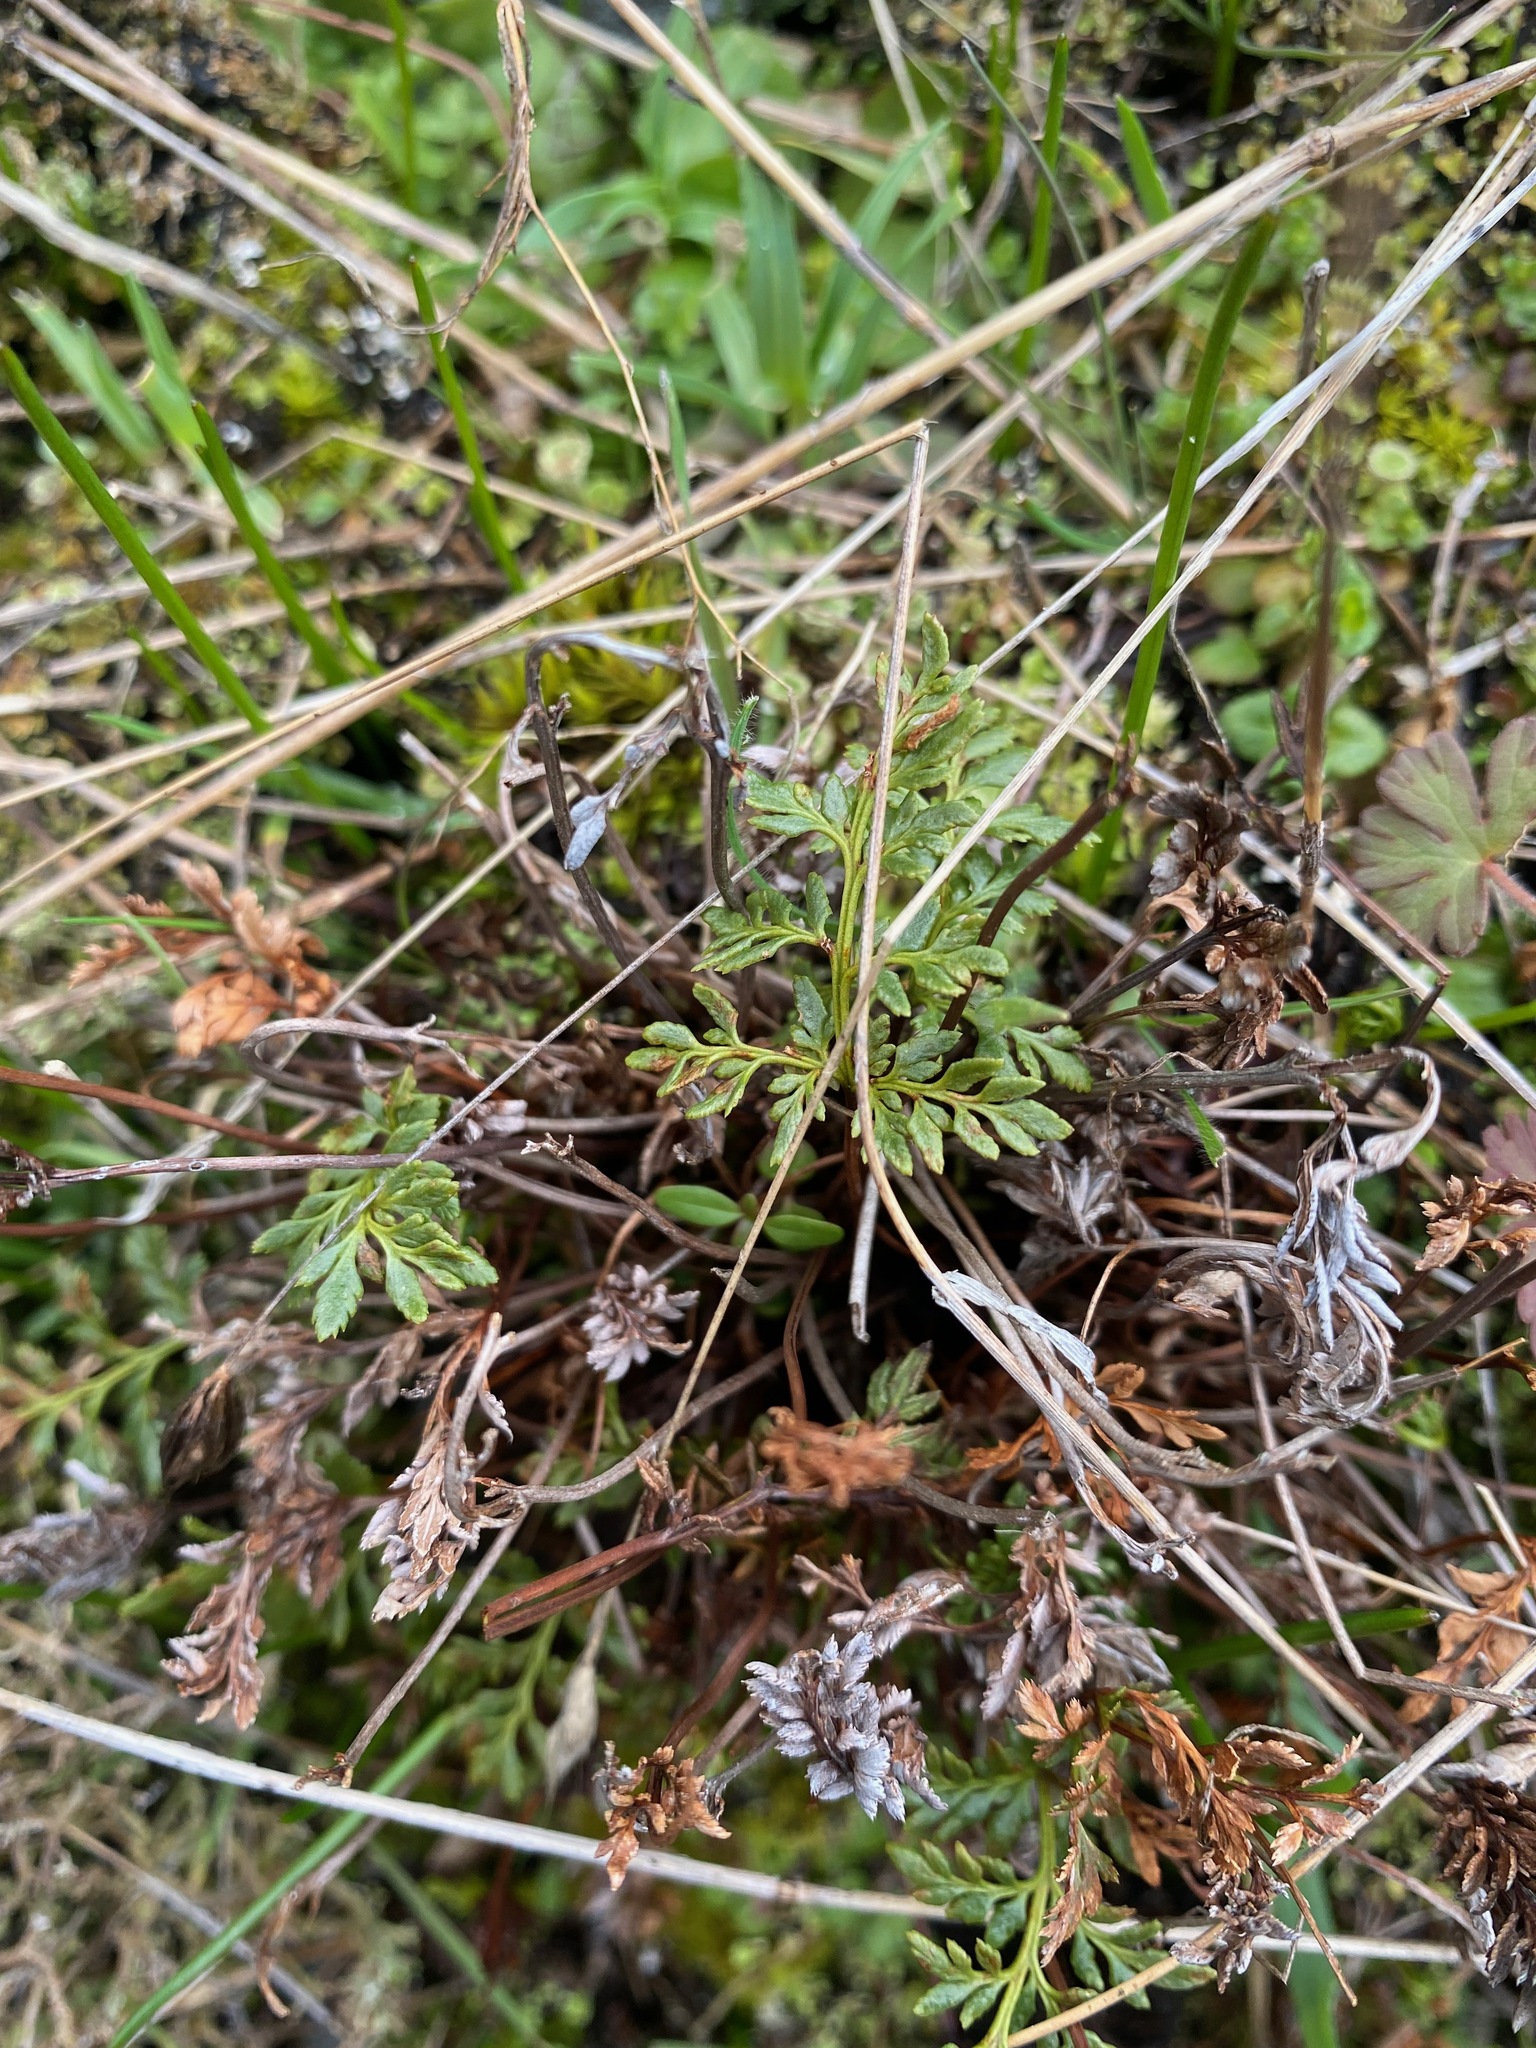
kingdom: Plantae
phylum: Tracheophyta
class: Polypodiopsida
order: Polypodiales
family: Pteridaceae
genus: Aspidotis
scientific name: Aspidotis densa
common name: Indian's dream
